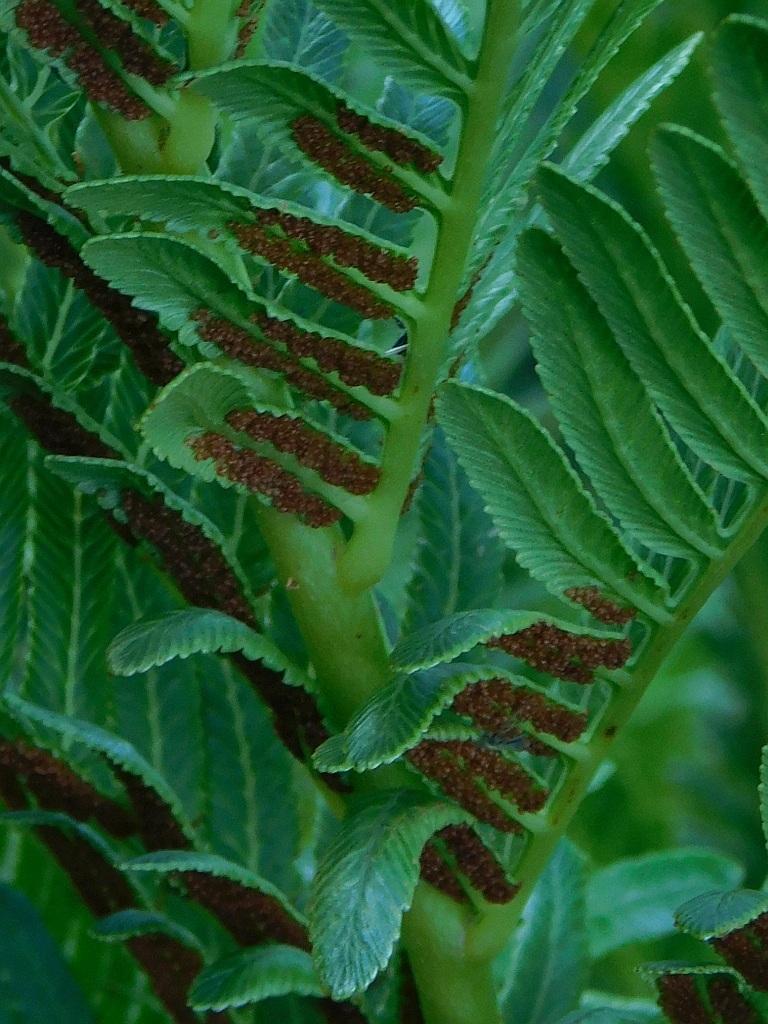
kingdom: Plantae
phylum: Tracheophyta
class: Polypodiopsida
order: Osmundales
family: Osmundaceae
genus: Todea
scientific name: Todea barbara
